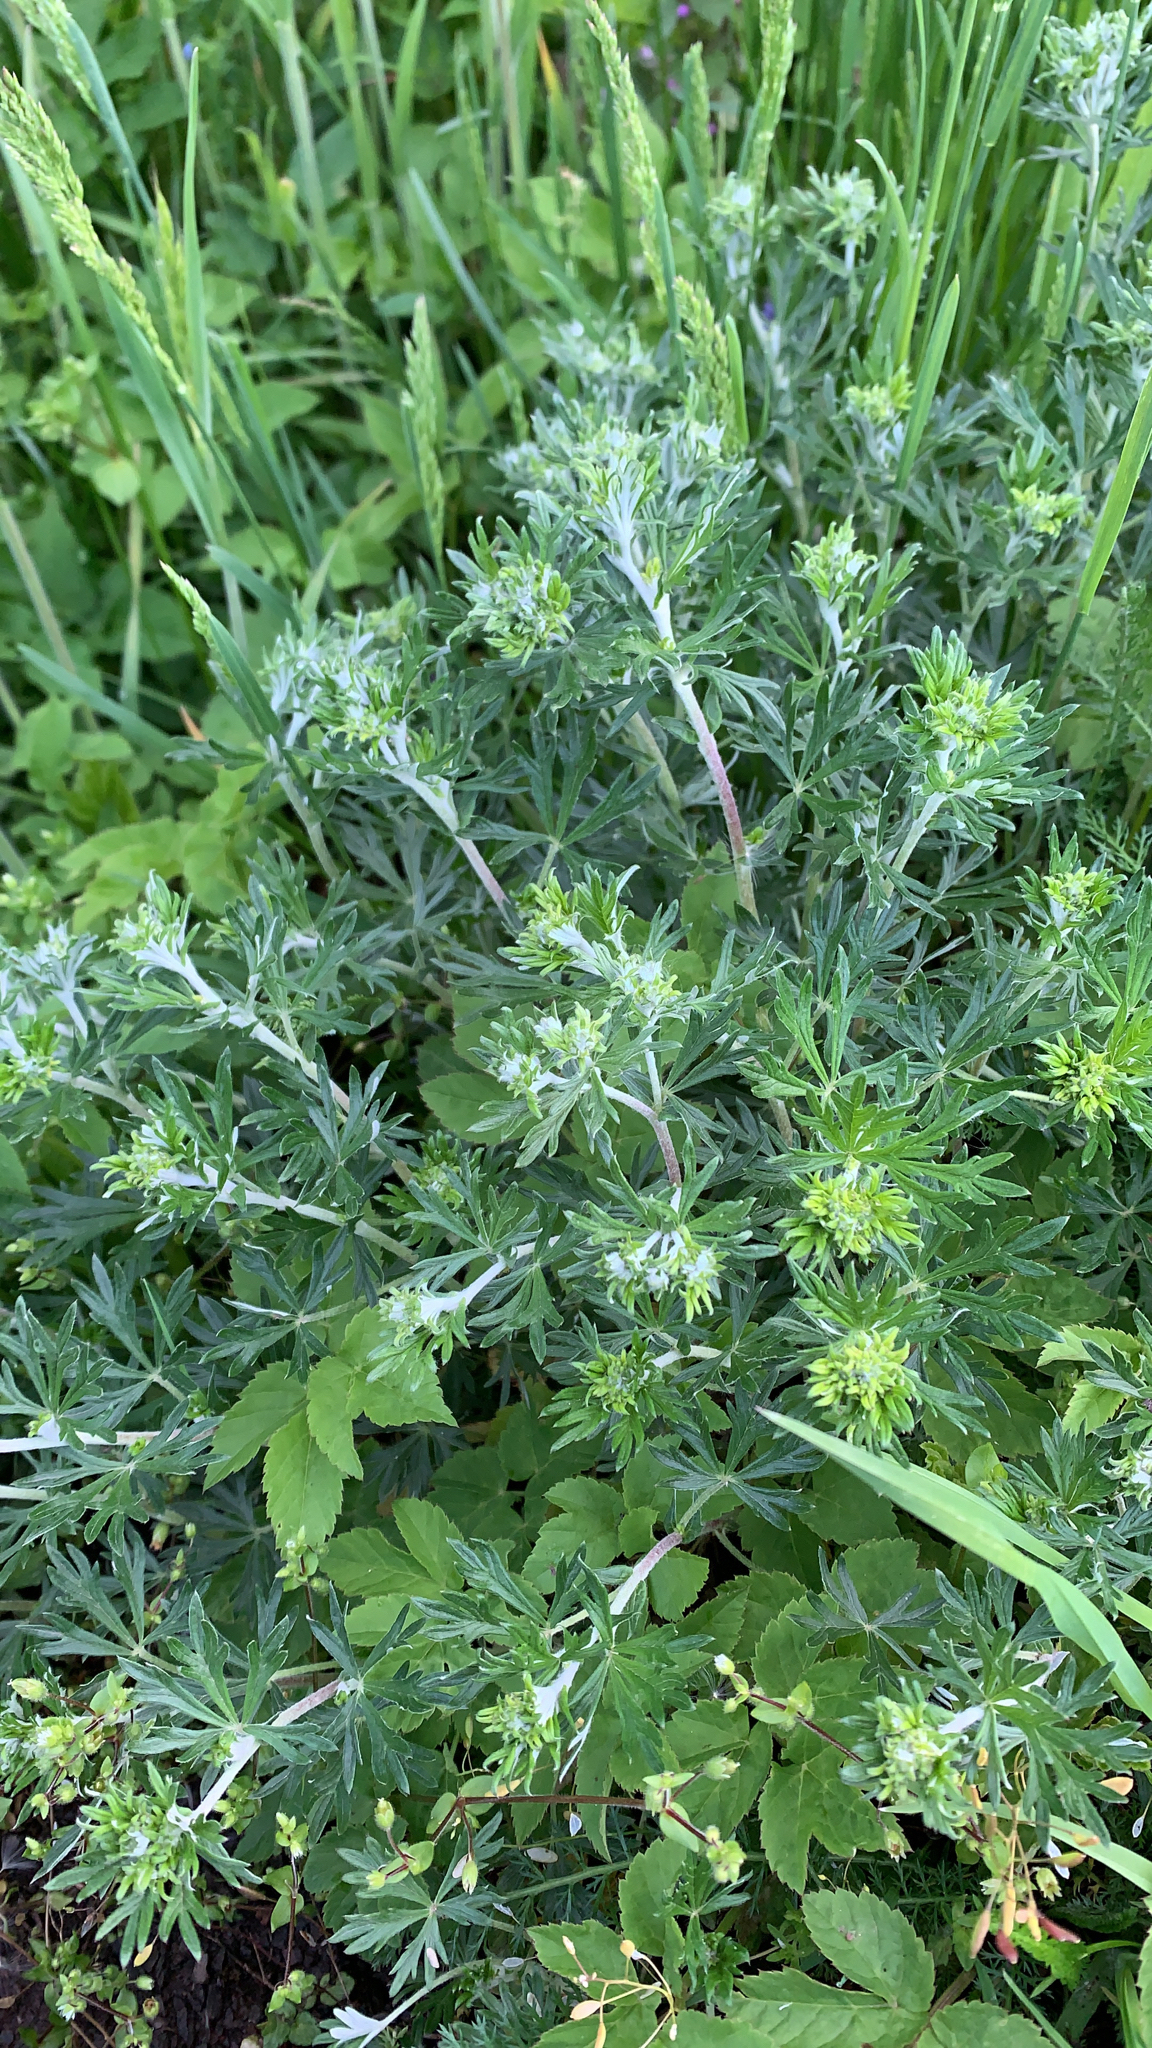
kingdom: Plantae
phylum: Tracheophyta
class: Magnoliopsida
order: Rosales
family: Rosaceae
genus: Potentilla
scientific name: Potentilla argentea
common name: Hoary cinquefoil
